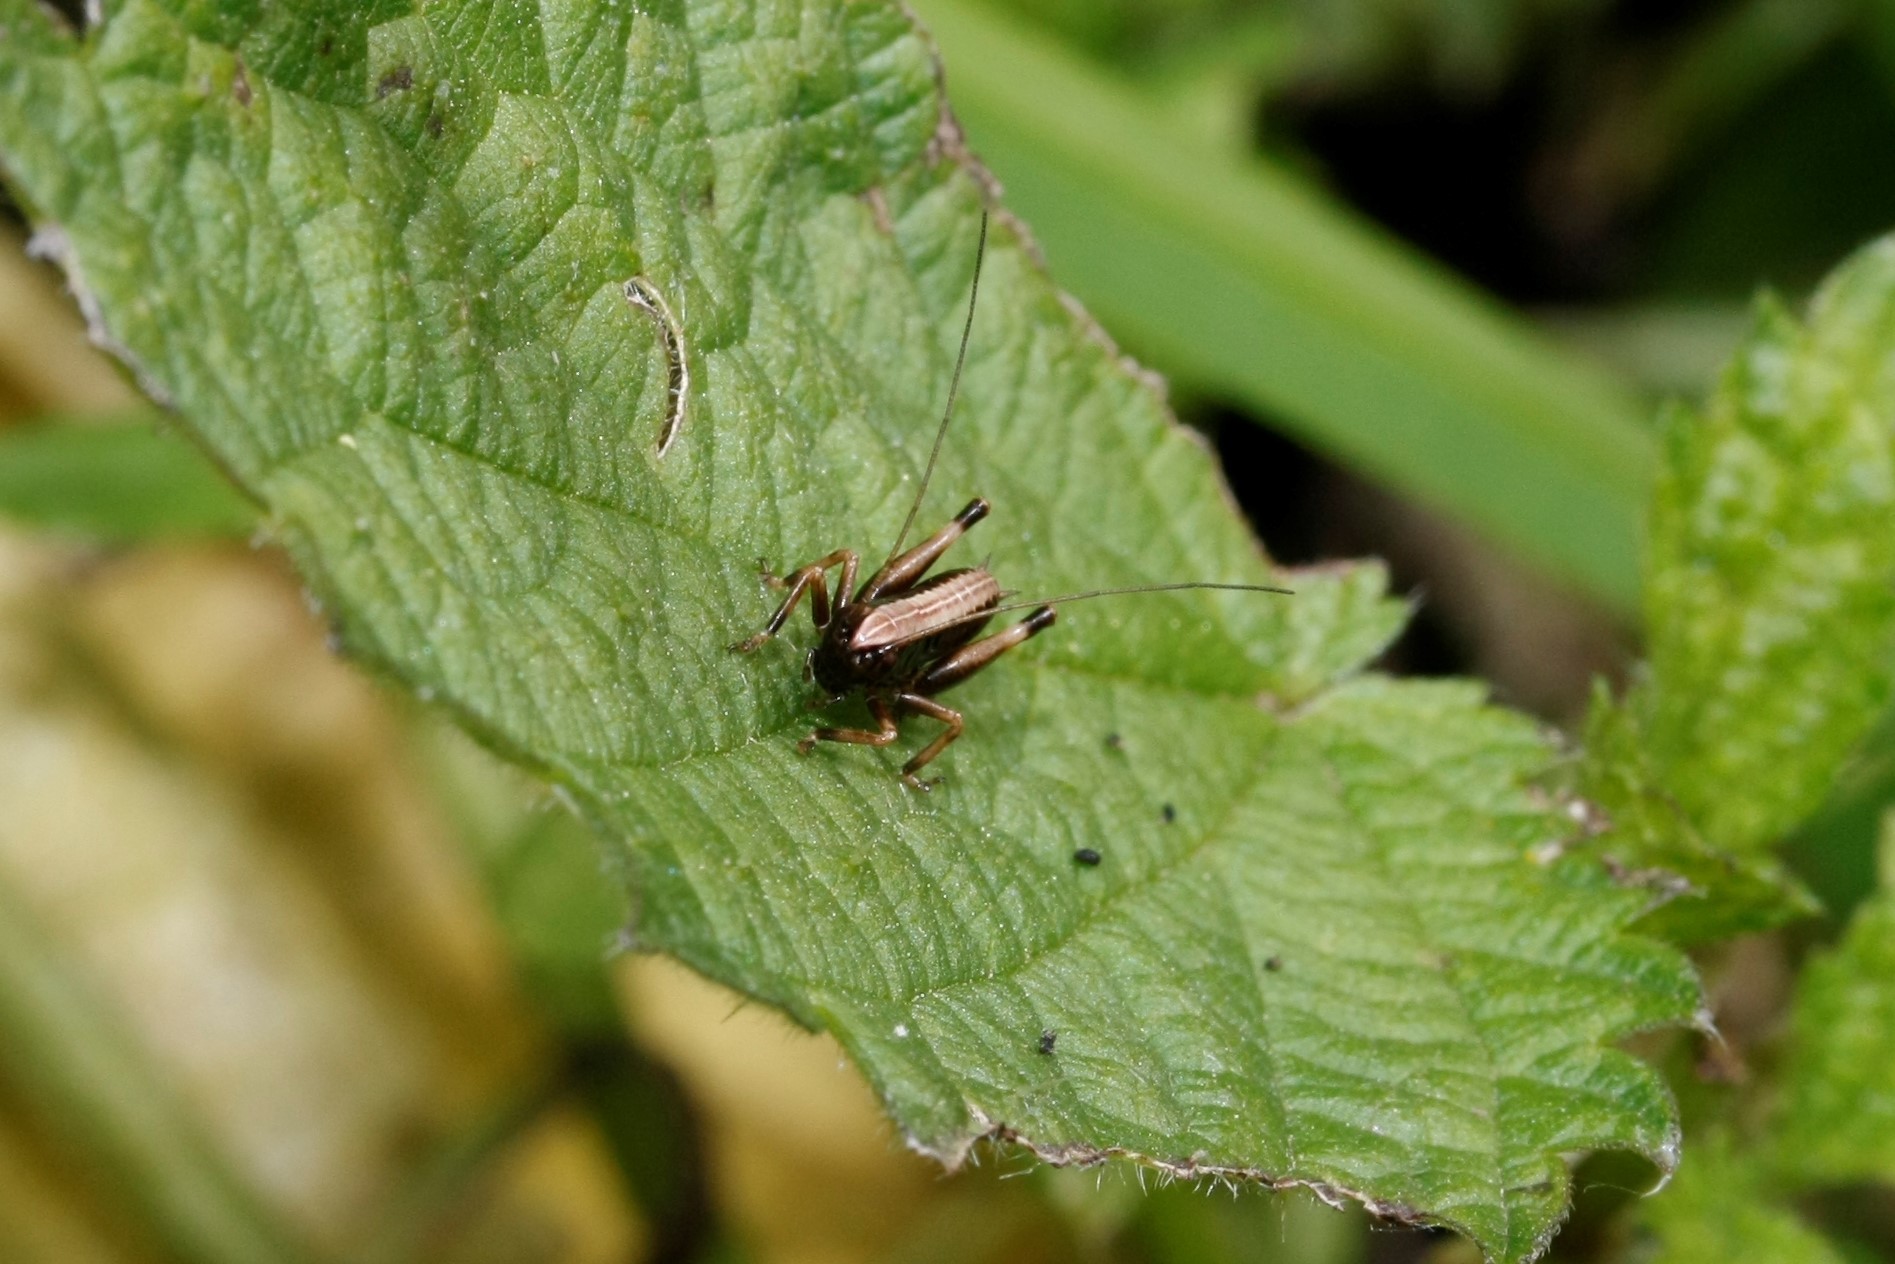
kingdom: Animalia
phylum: Arthropoda
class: Insecta
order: Orthoptera
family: Tettigoniidae
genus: Pholidoptera
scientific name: Pholidoptera griseoaptera
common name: Dark bush-cricket
